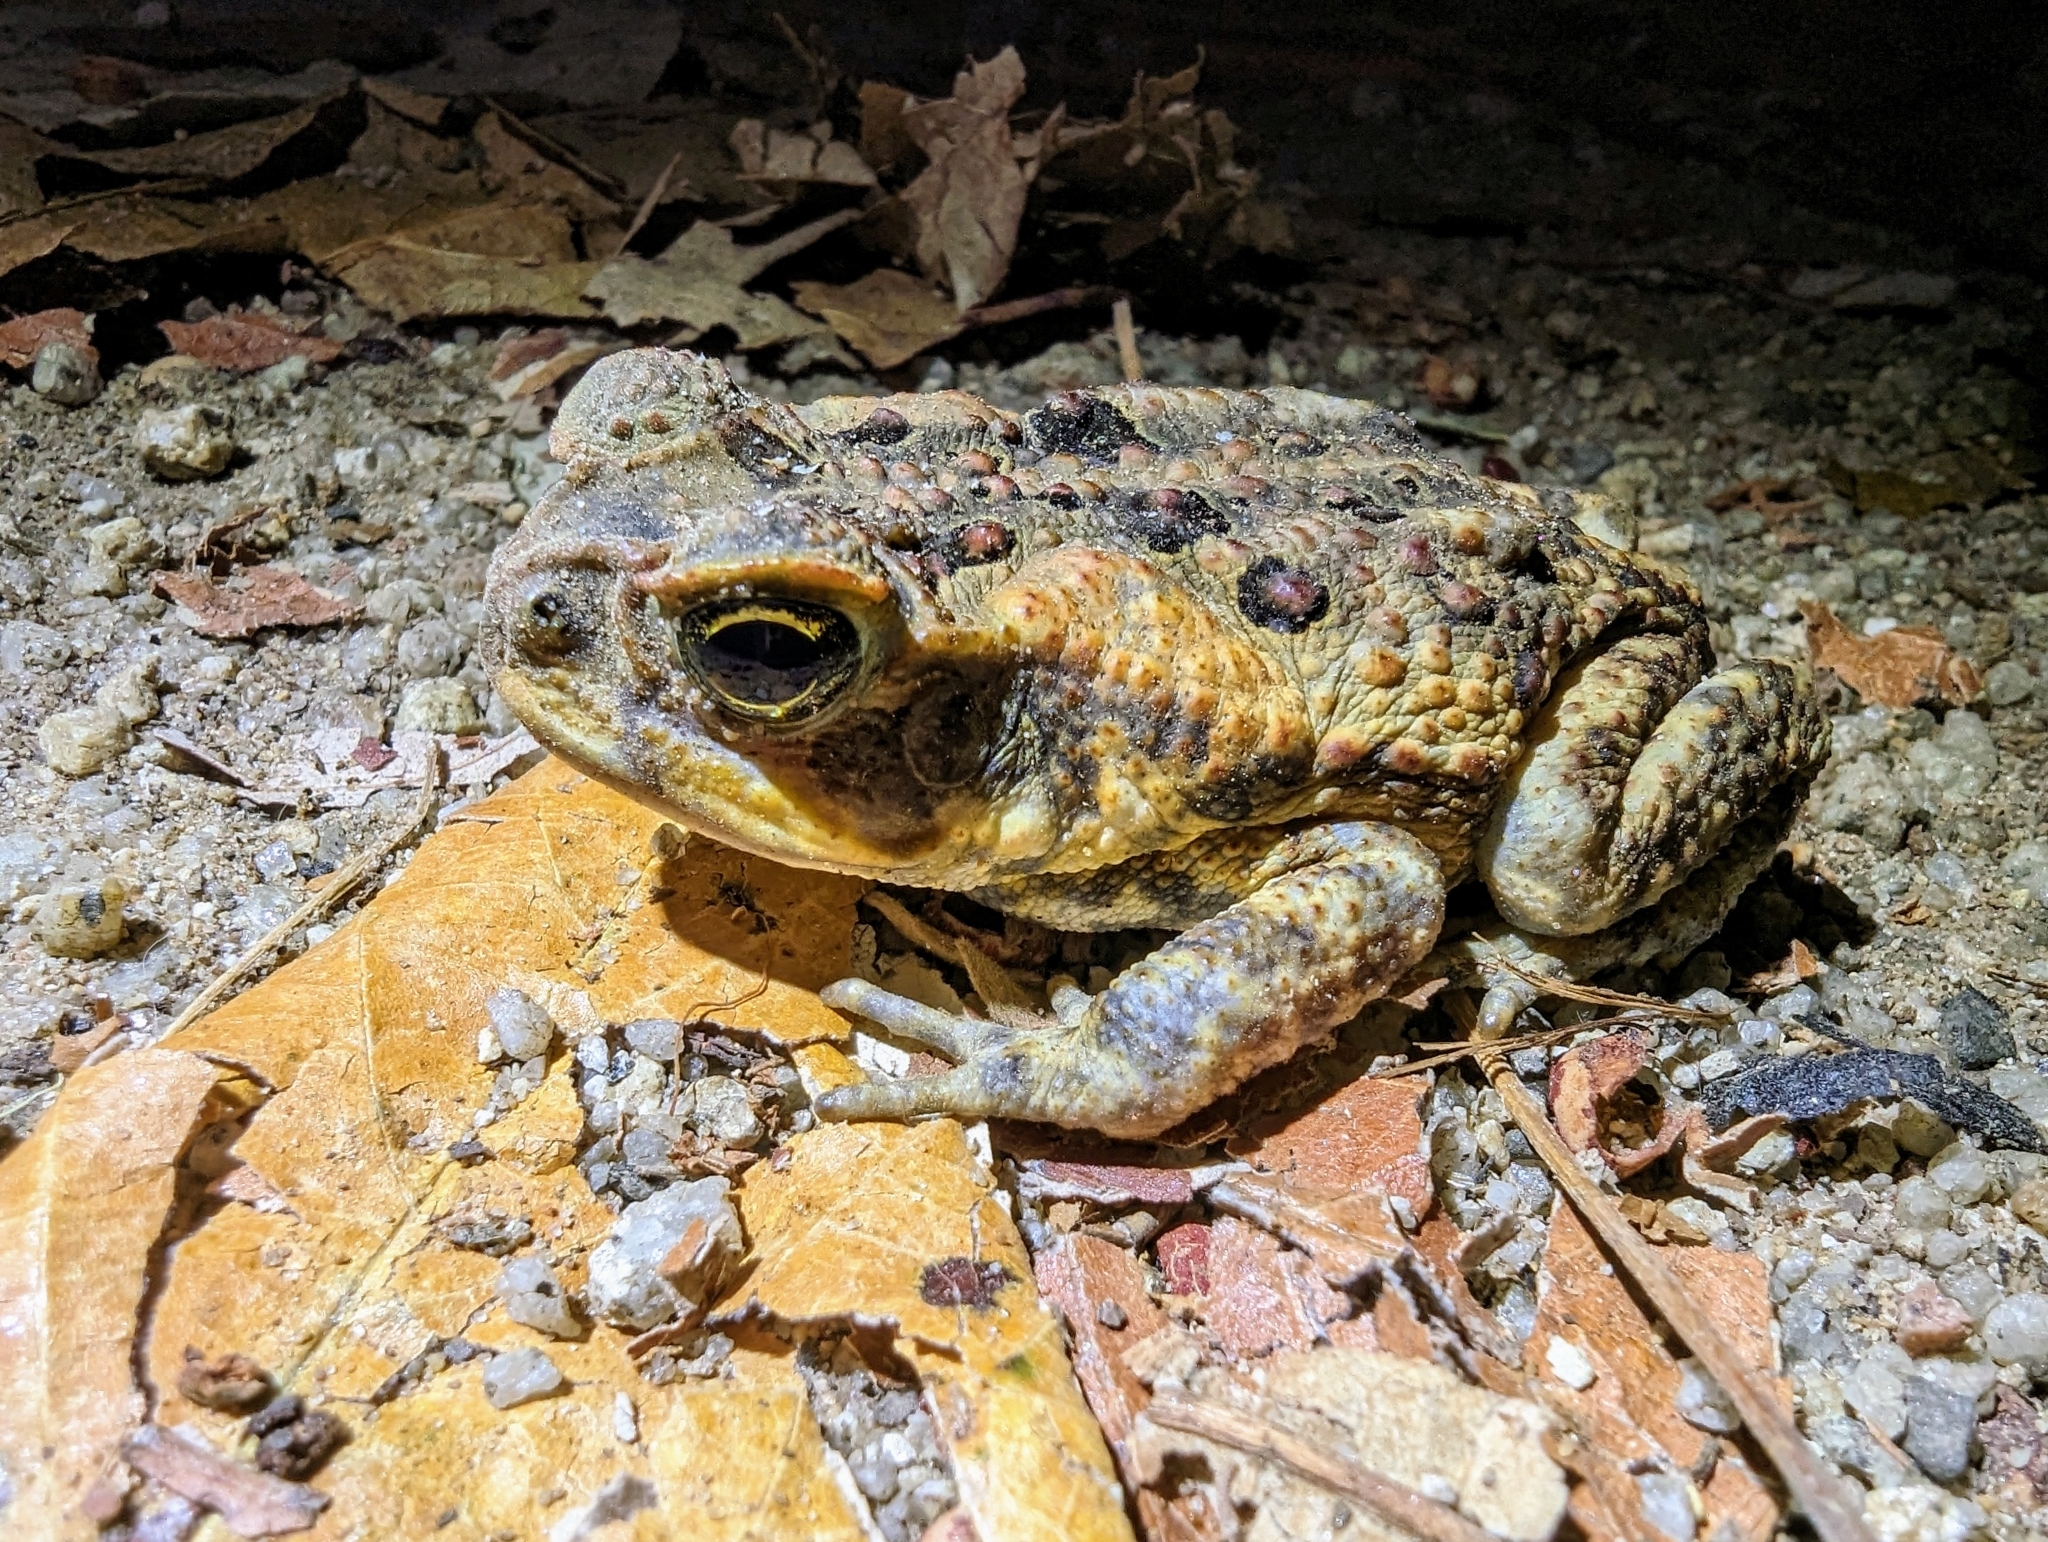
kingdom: Animalia
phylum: Chordata
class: Amphibia
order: Anura
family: Bufonidae
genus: Rhinella
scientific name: Rhinella marina
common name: Cane toad
